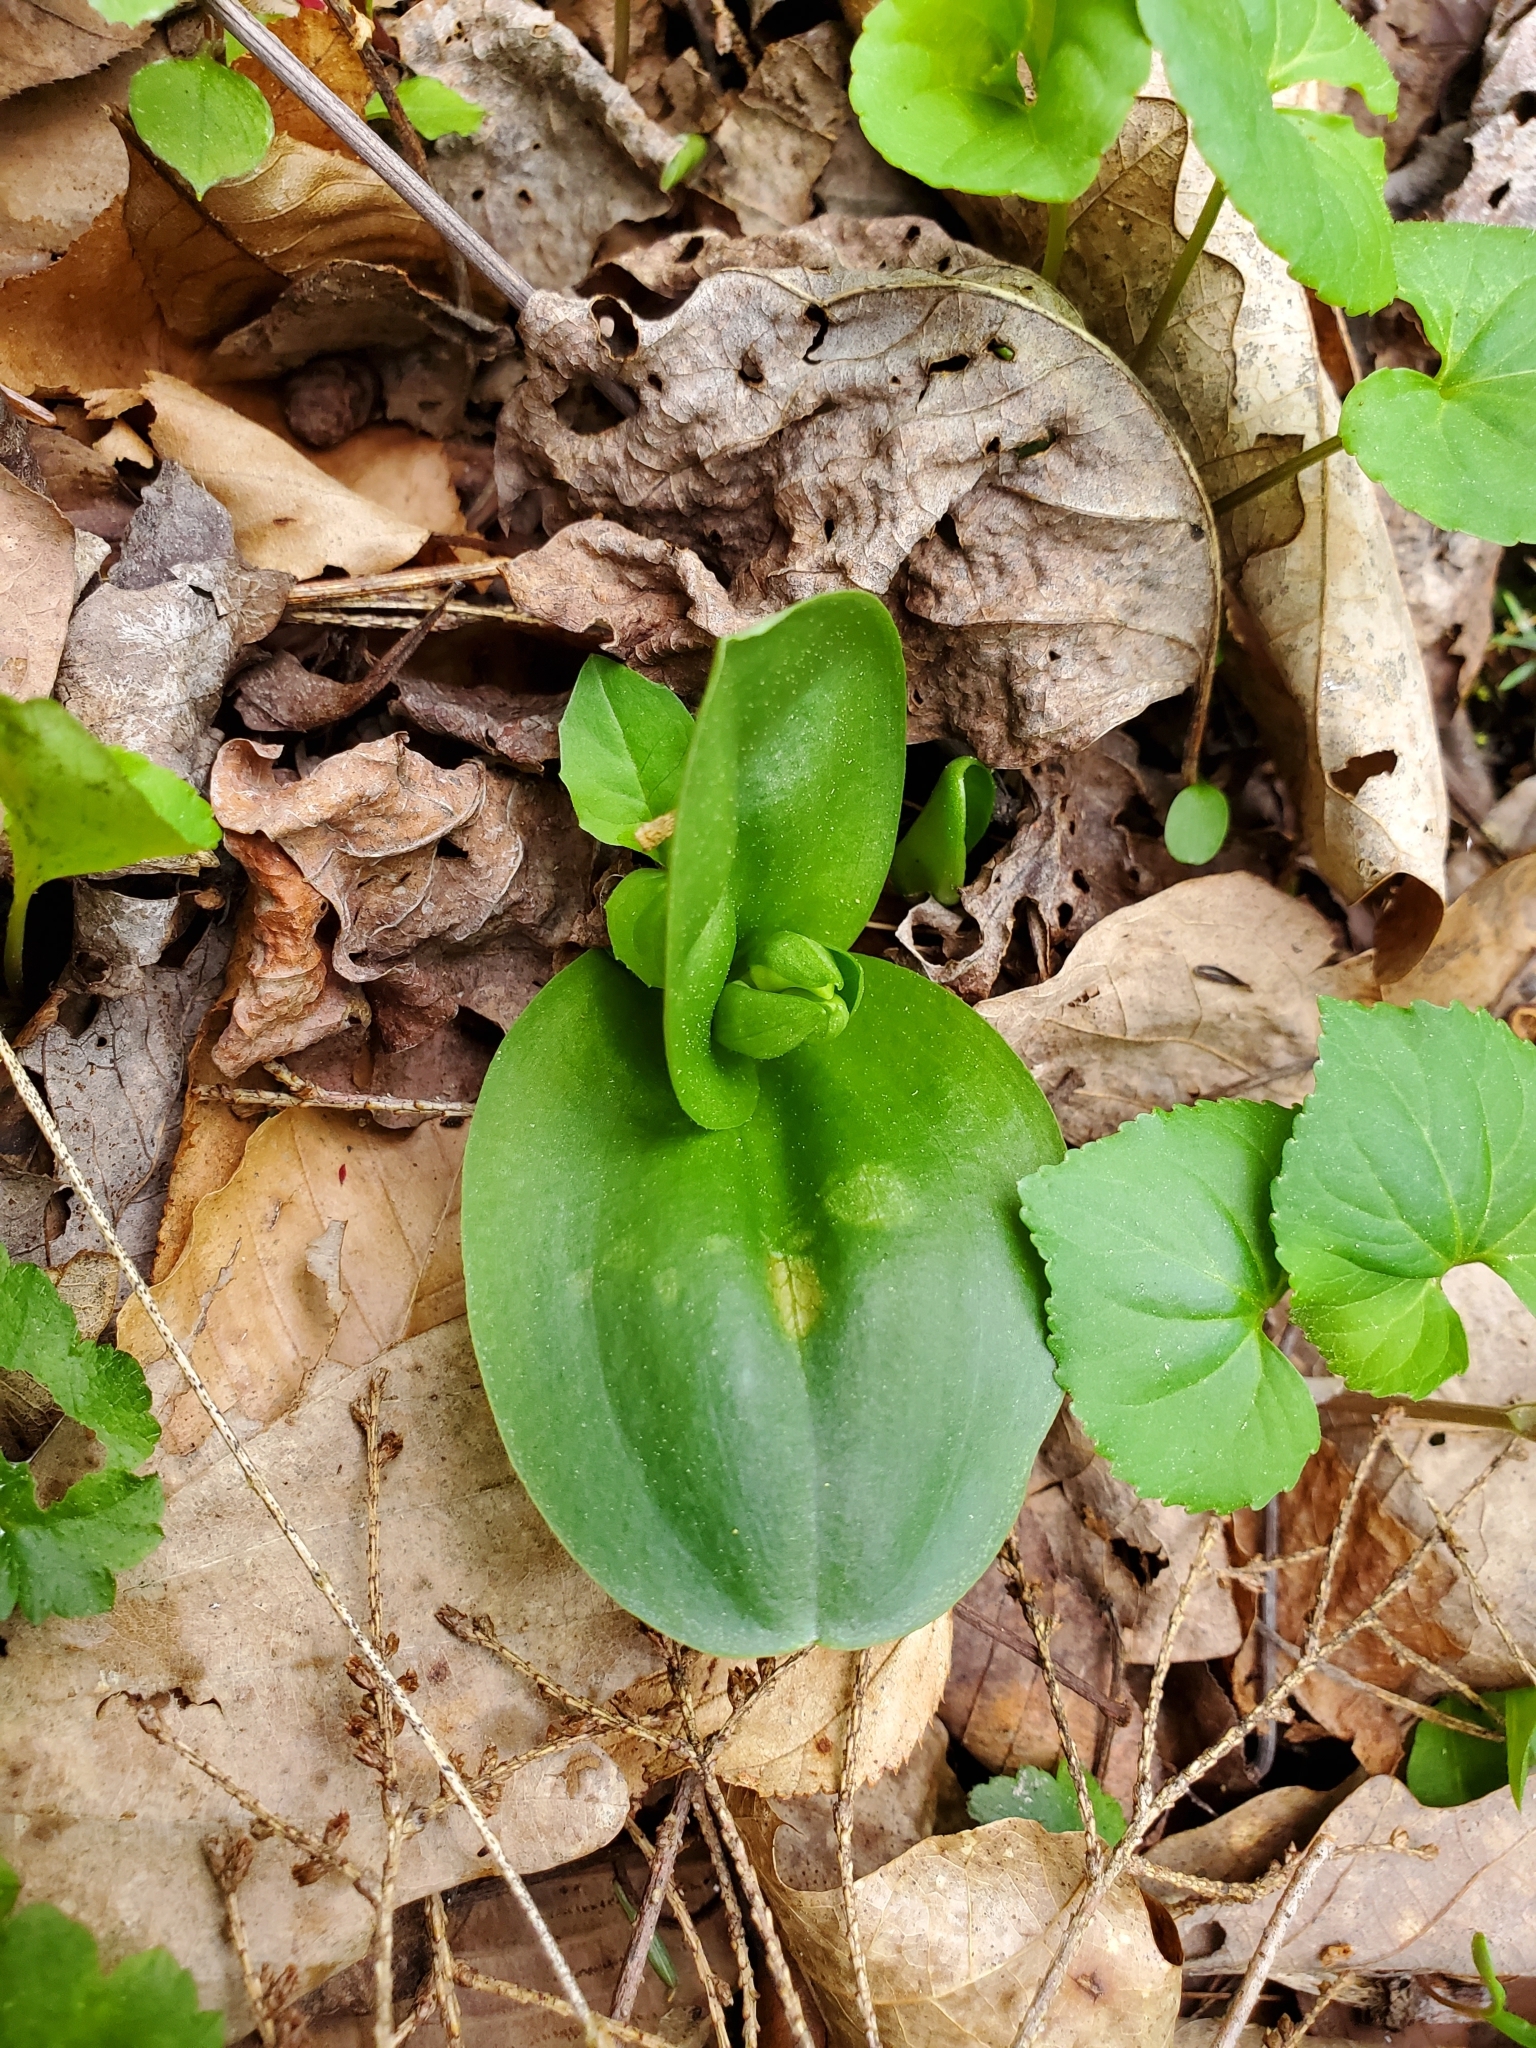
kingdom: Plantae
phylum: Tracheophyta
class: Liliopsida
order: Asparagales
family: Orchidaceae
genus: Galearis
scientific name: Galearis spectabilis
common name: Purple-hooded orchis
